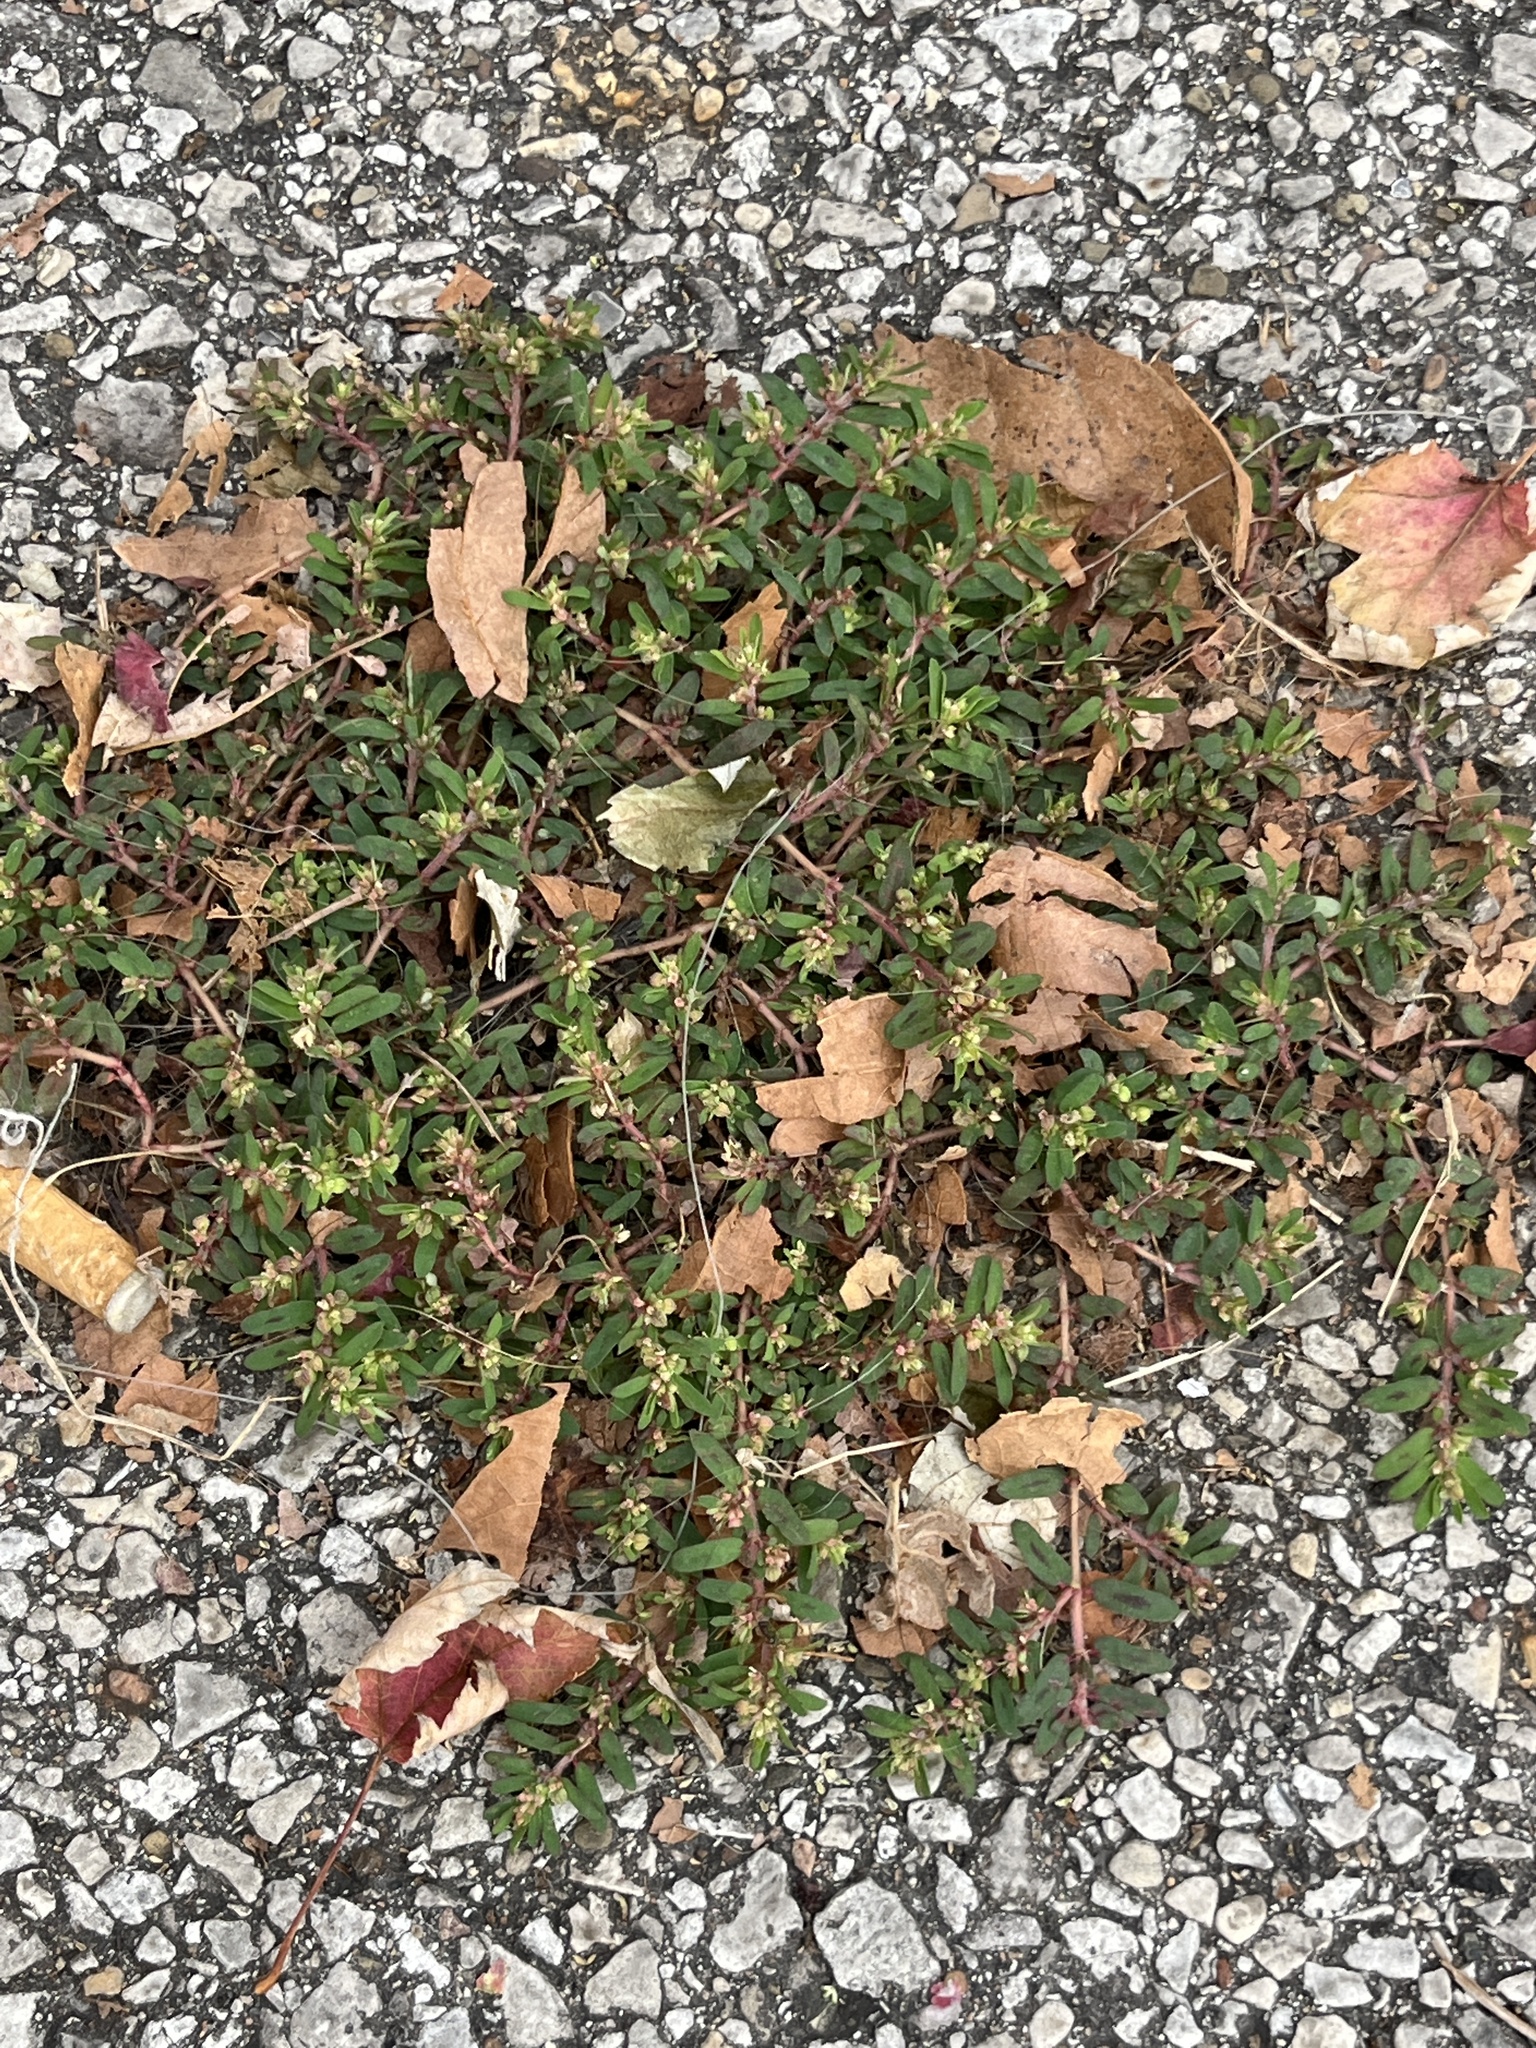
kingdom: Plantae
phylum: Tracheophyta
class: Magnoliopsida
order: Malpighiales
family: Euphorbiaceae
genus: Euphorbia
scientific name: Euphorbia maculata
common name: Spotted spurge
